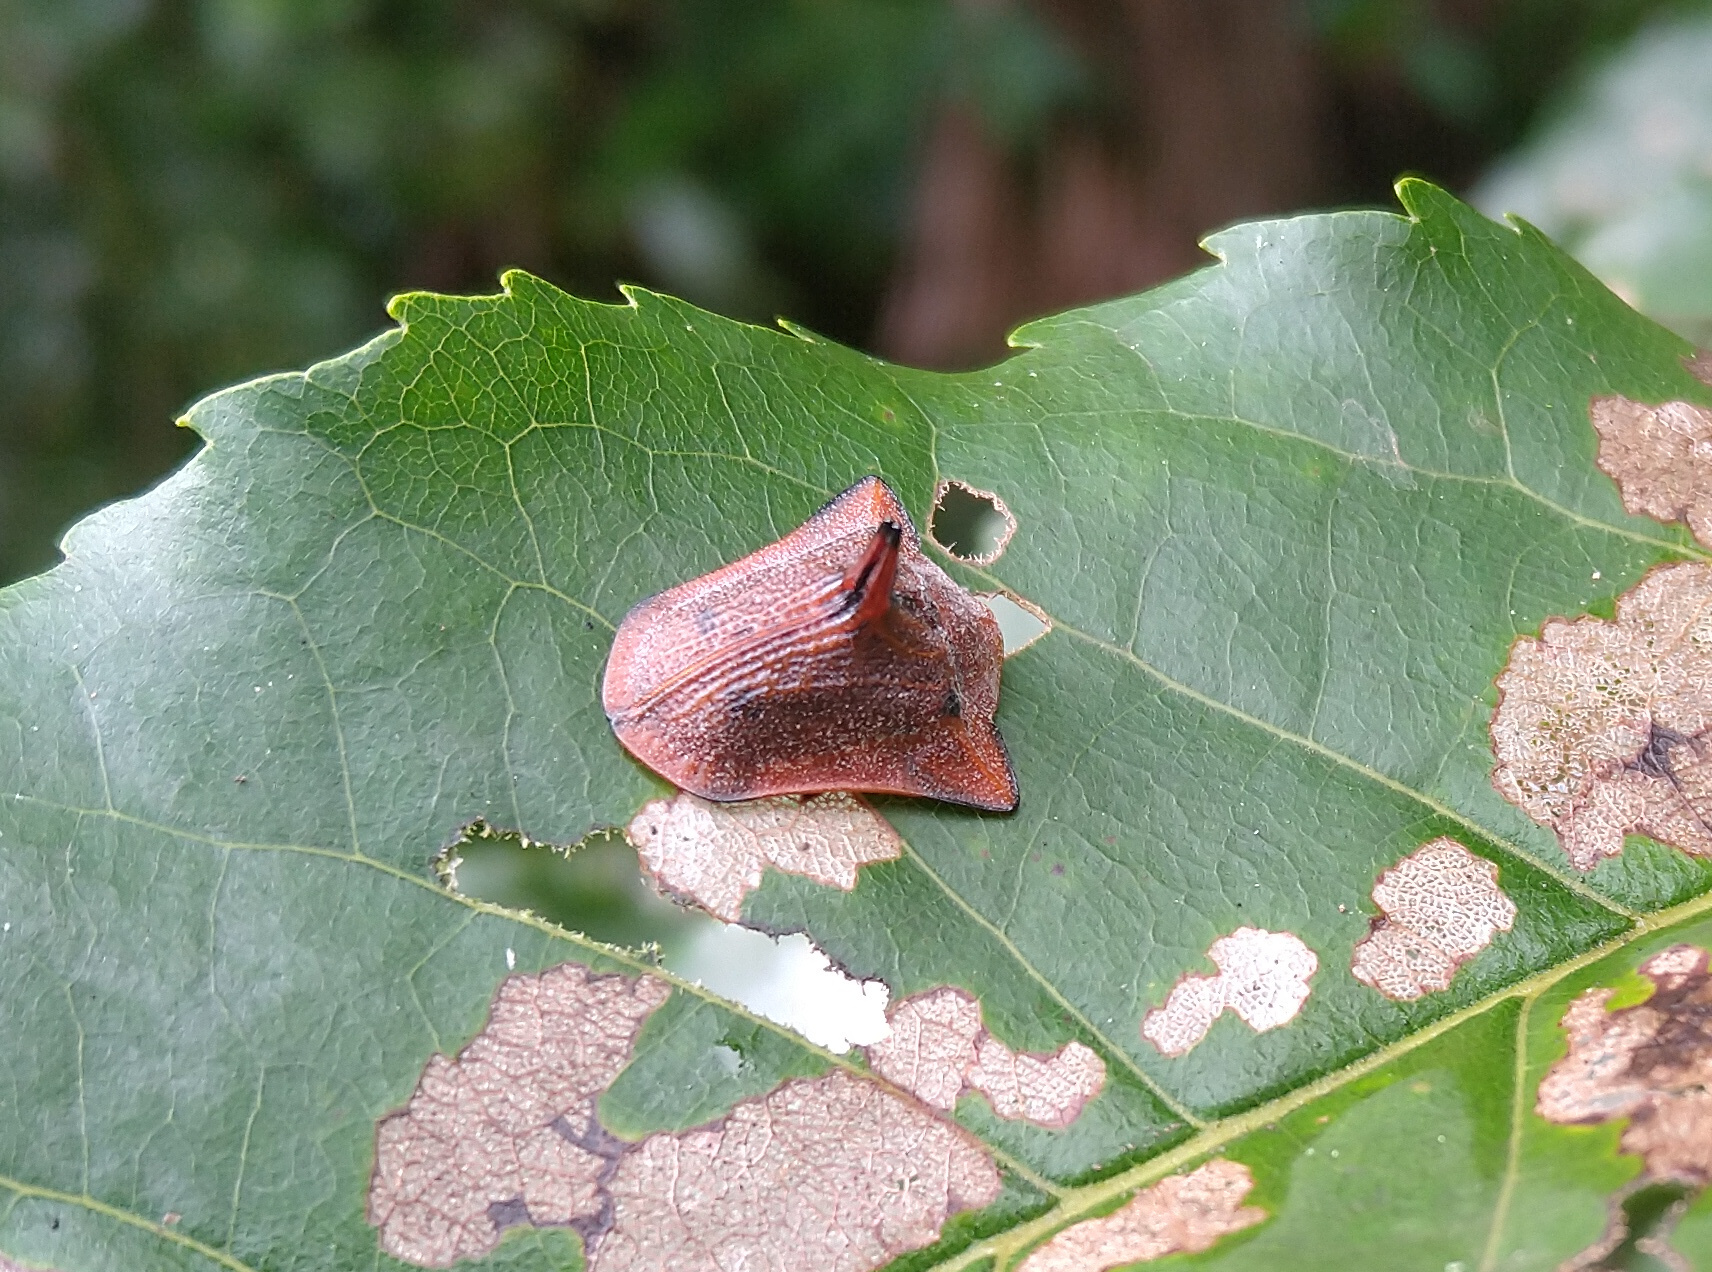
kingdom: Animalia
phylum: Arthropoda
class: Insecta
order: Coleoptera
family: Chrysomelidae
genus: Dorynota
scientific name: Dorynota monoceros
